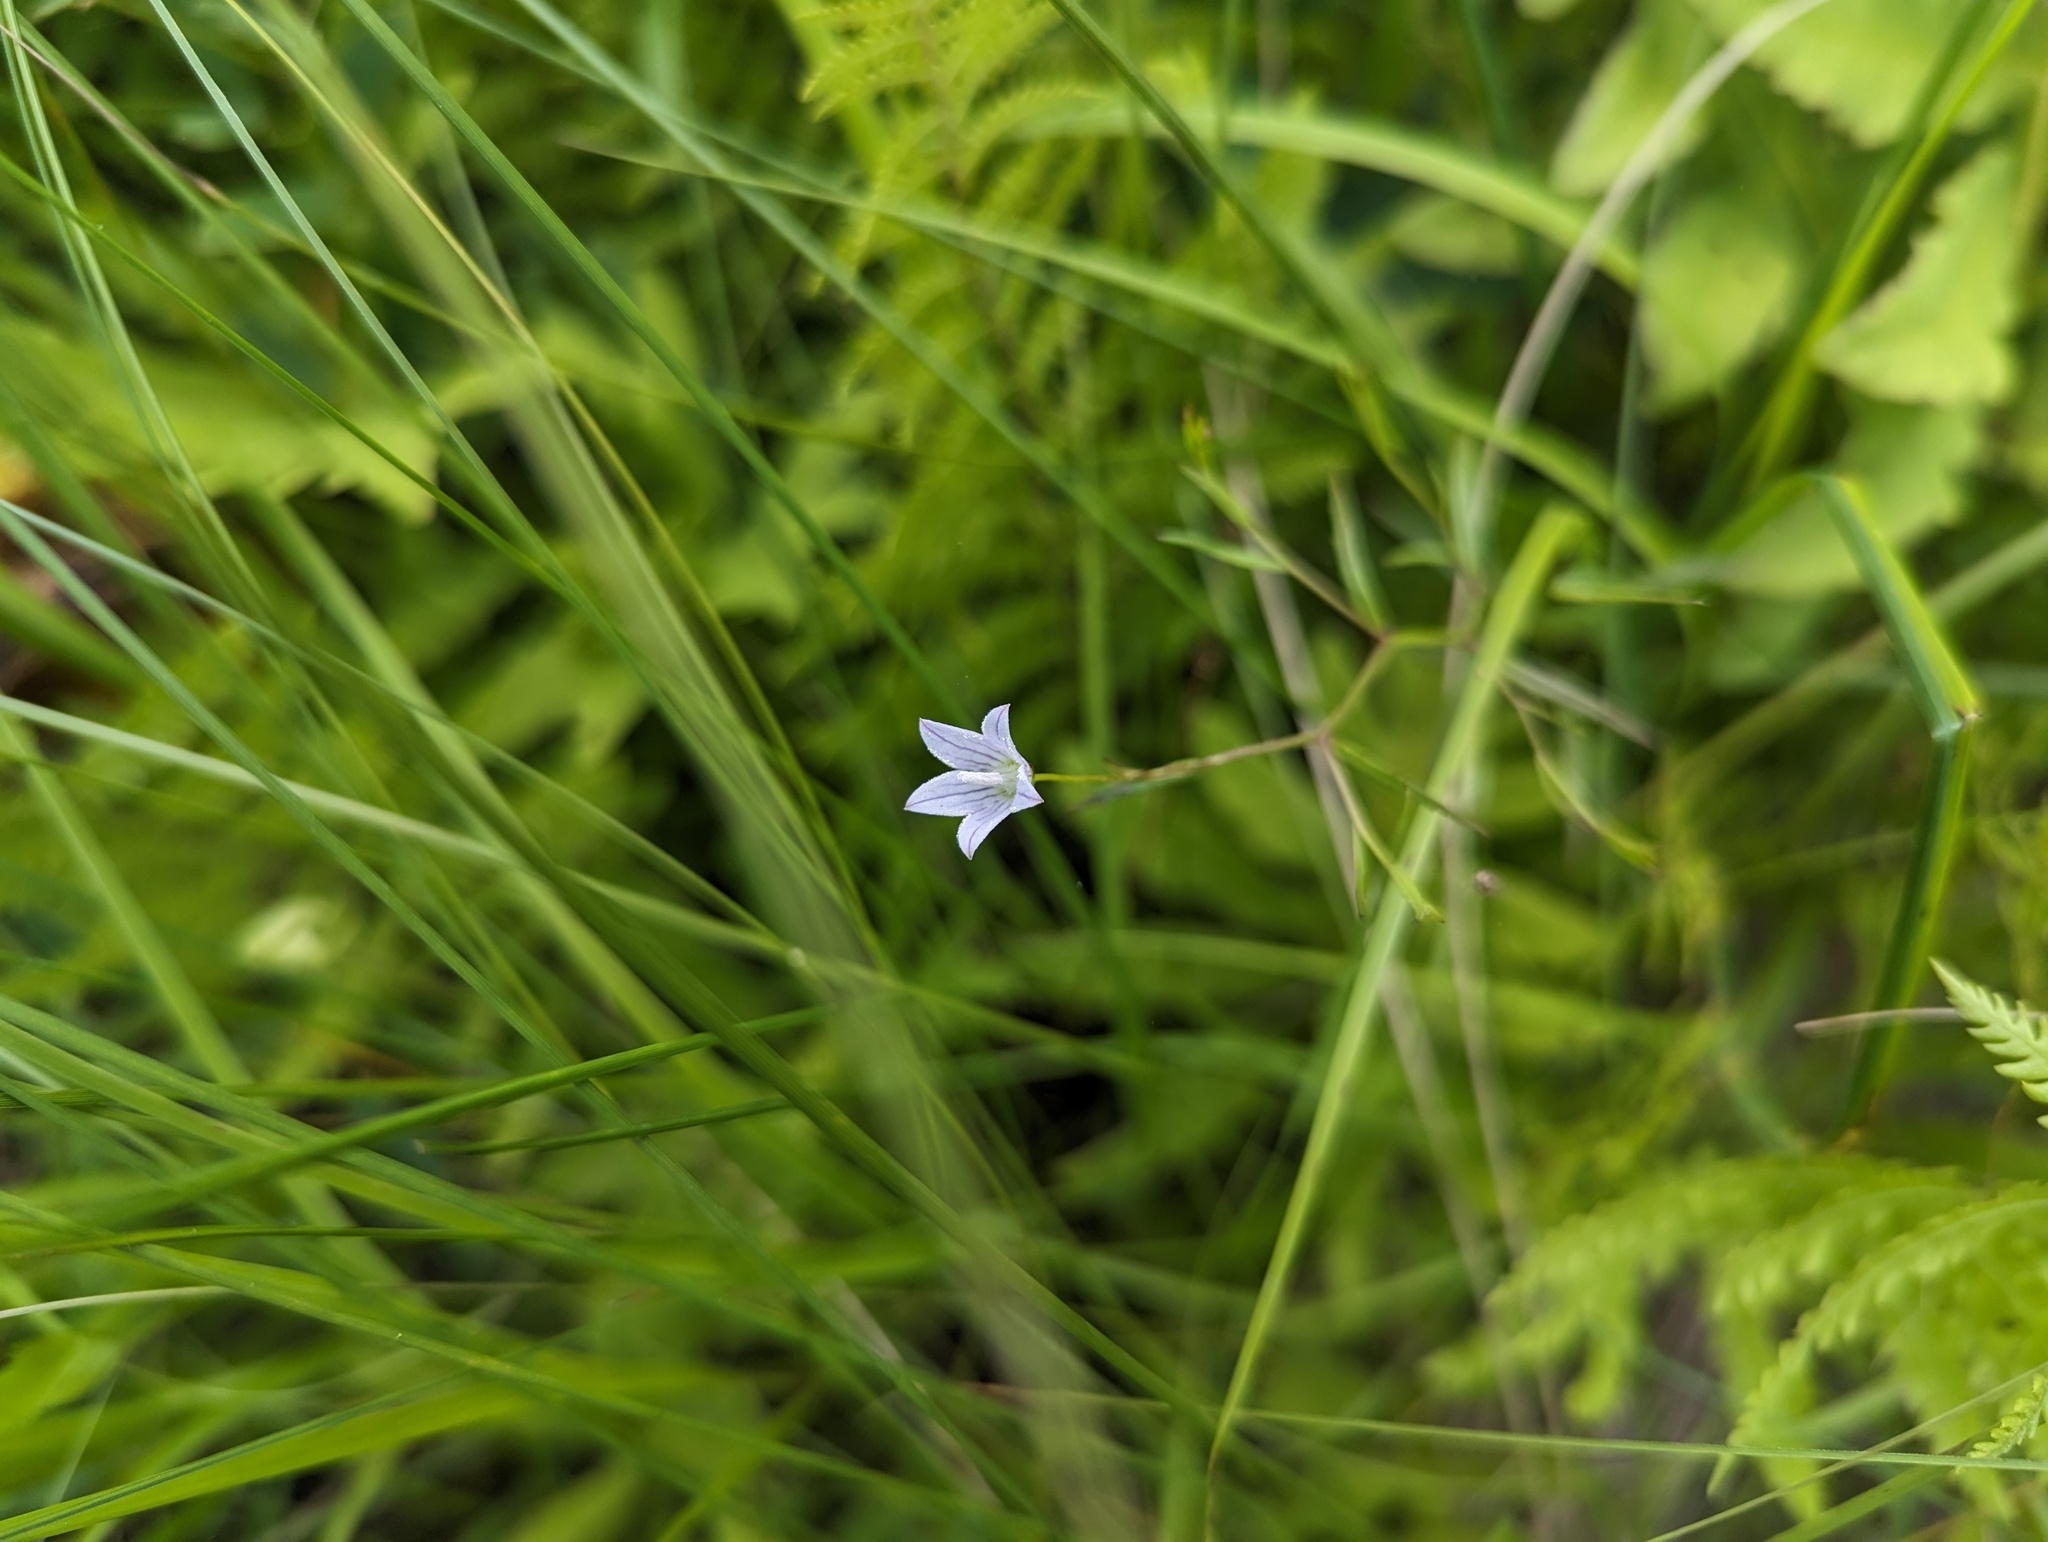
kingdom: Plantae
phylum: Tracheophyta
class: Magnoliopsida
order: Asterales
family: Campanulaceae
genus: Palustricodon
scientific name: Palustricodon aparinoides
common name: Bedstraw bellflower
